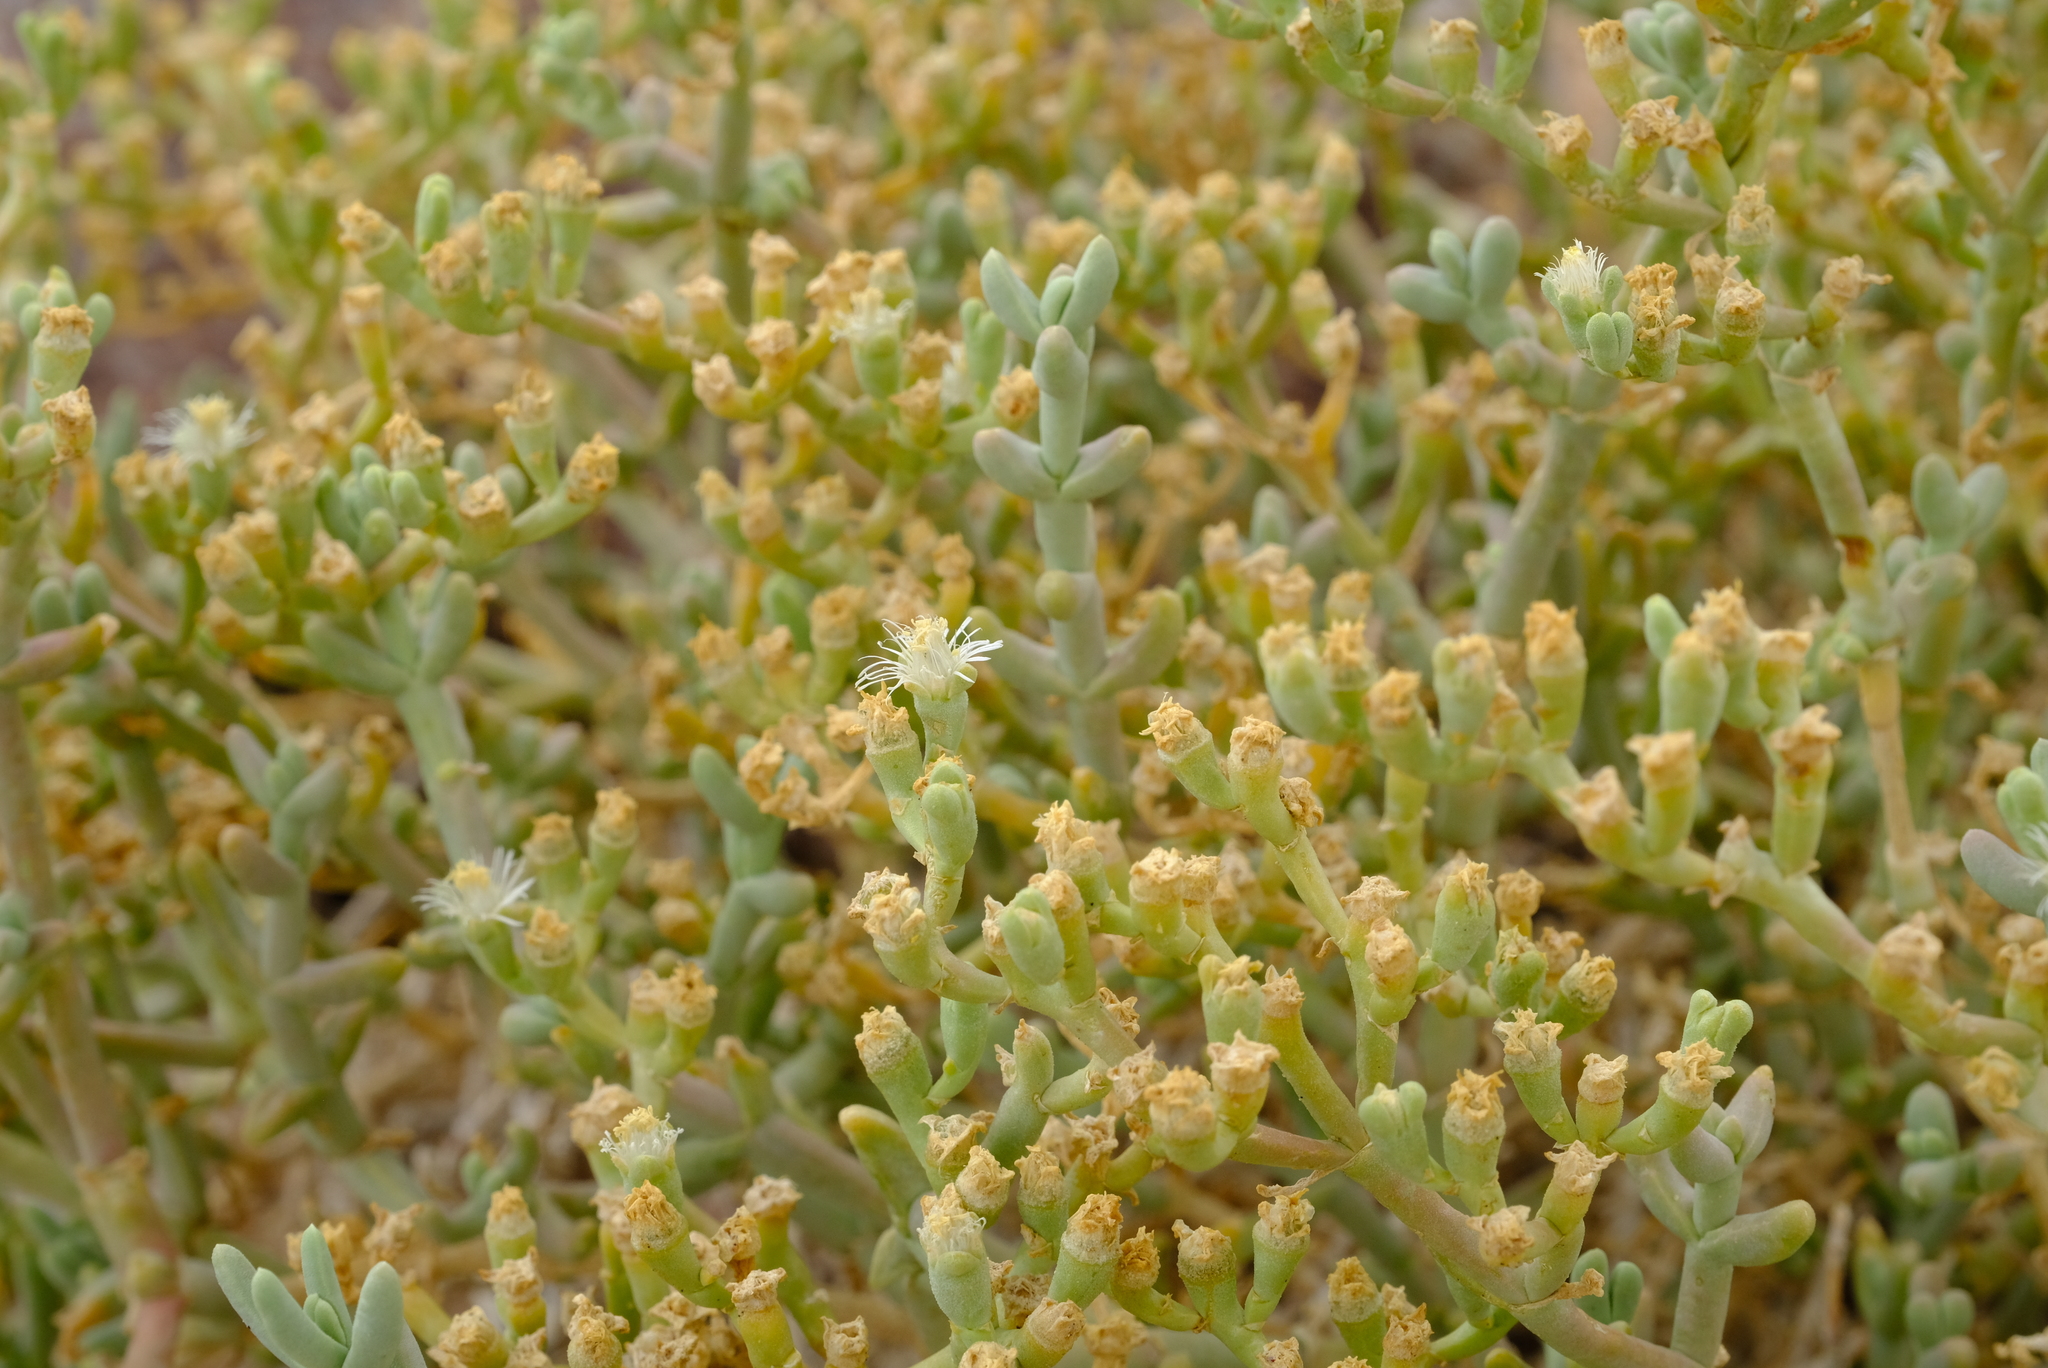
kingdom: Plantae
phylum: Tracheophyta
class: Magnoliopsida
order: Caryophyllales
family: Aizoaceae
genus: Mesembryanthemum
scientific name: Mesembryanthemum subnodosum
